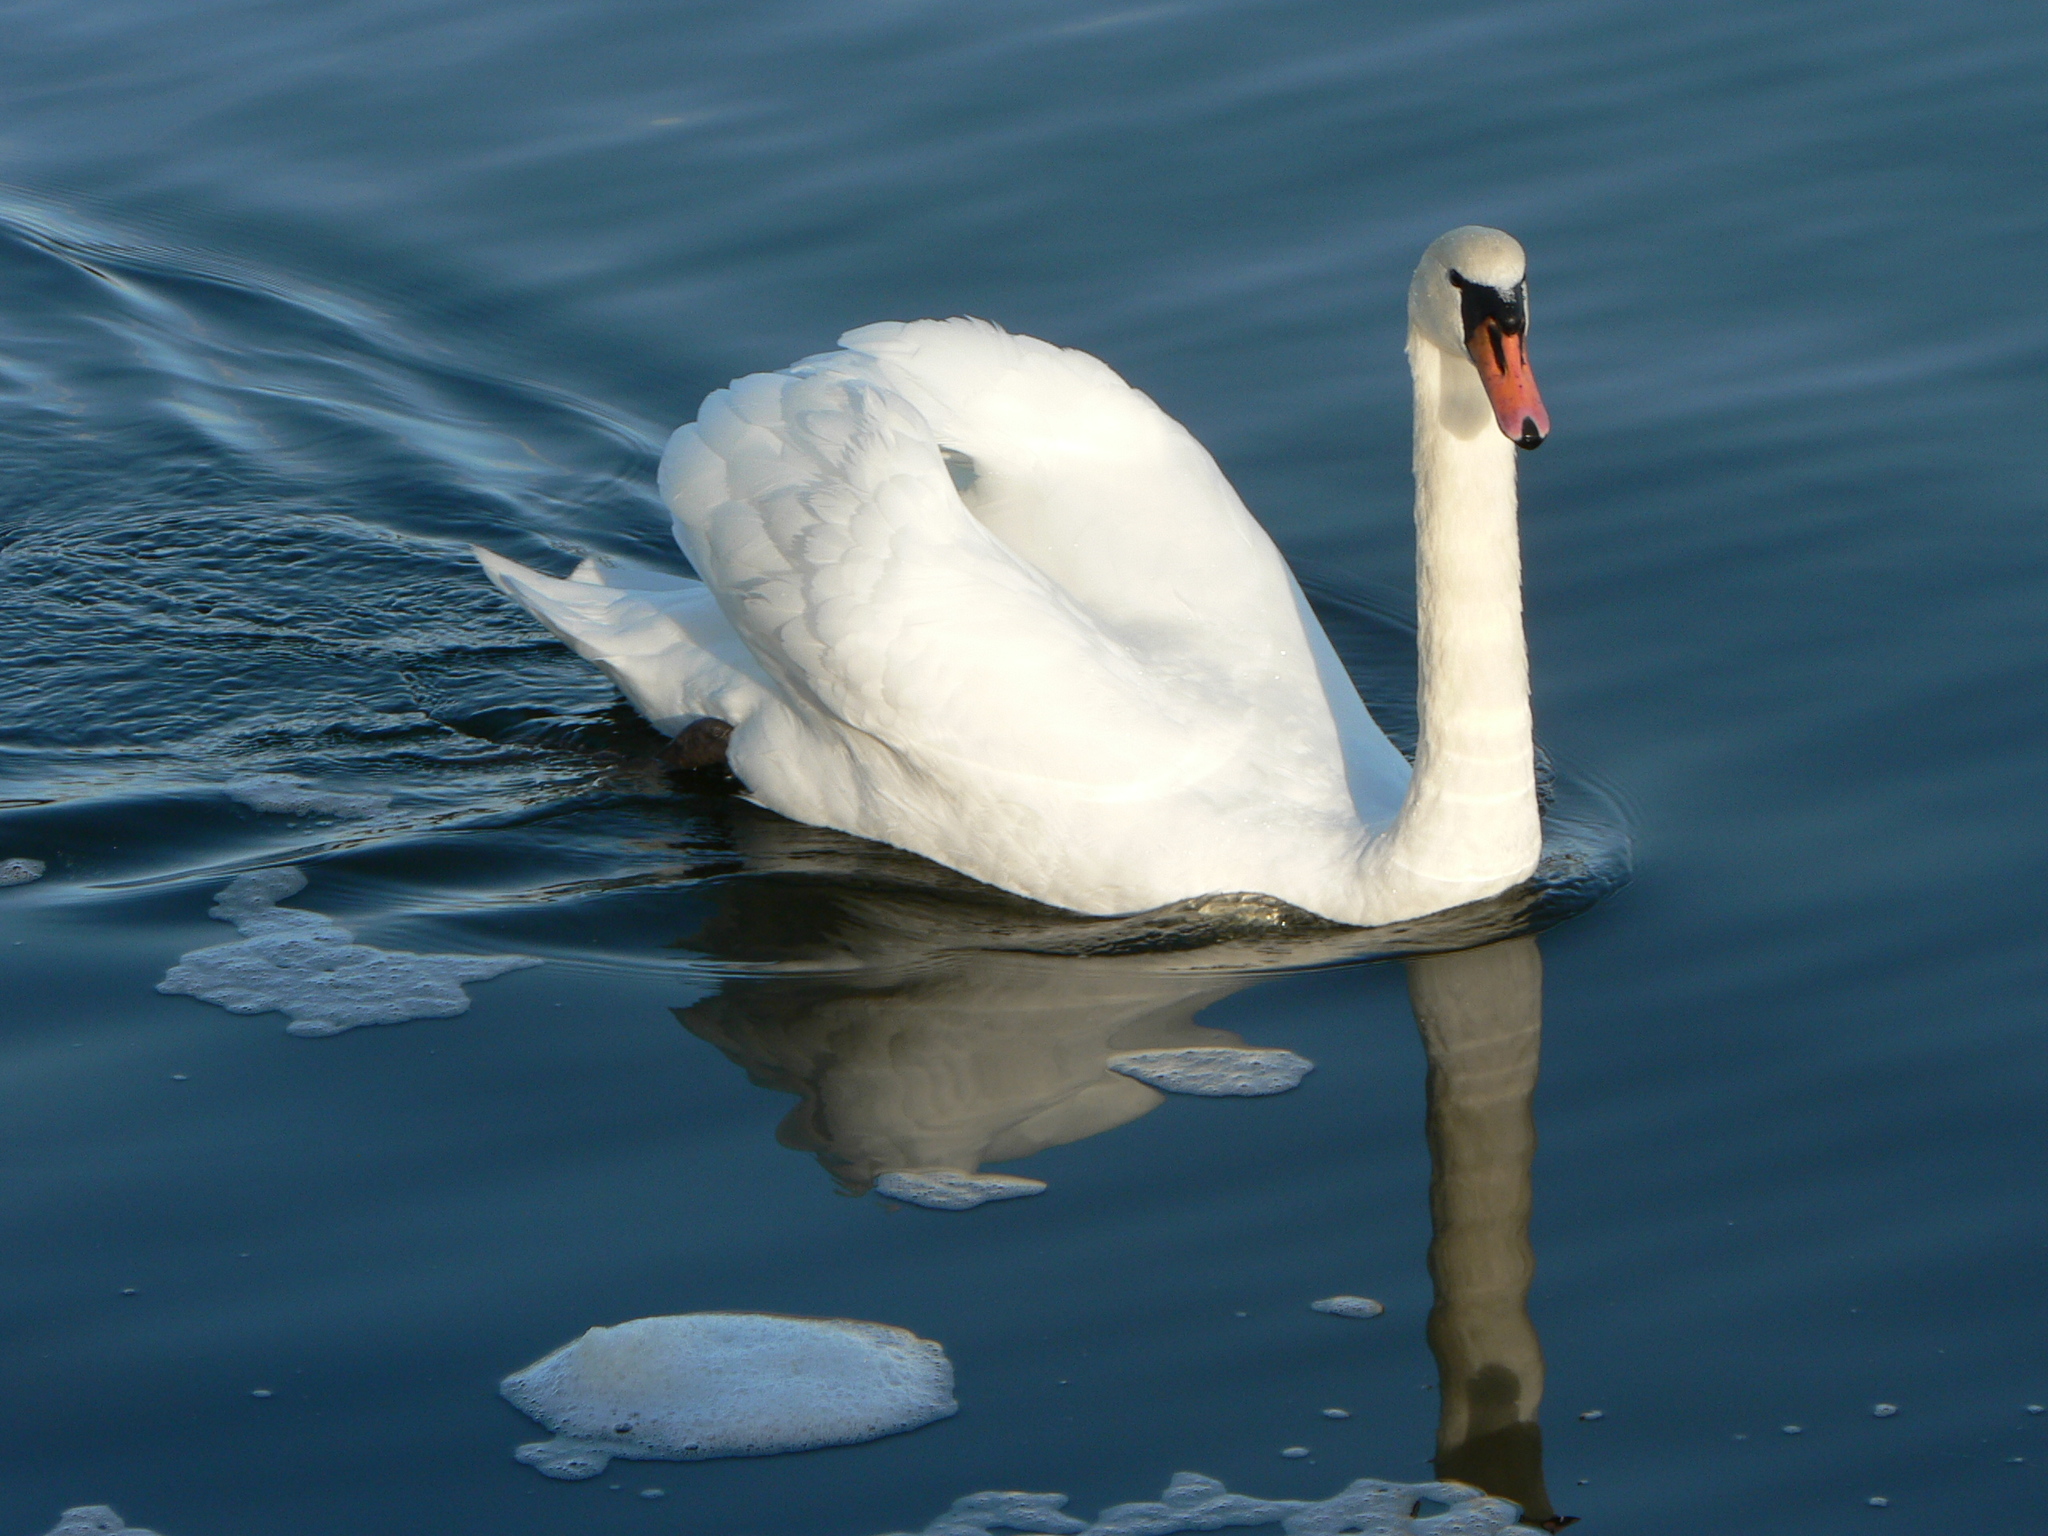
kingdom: Animalia
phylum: Chordata
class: Aves
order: Anseriformes
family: Anatidae
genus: Cygnus
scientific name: Cygnus olor
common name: Mute swan
